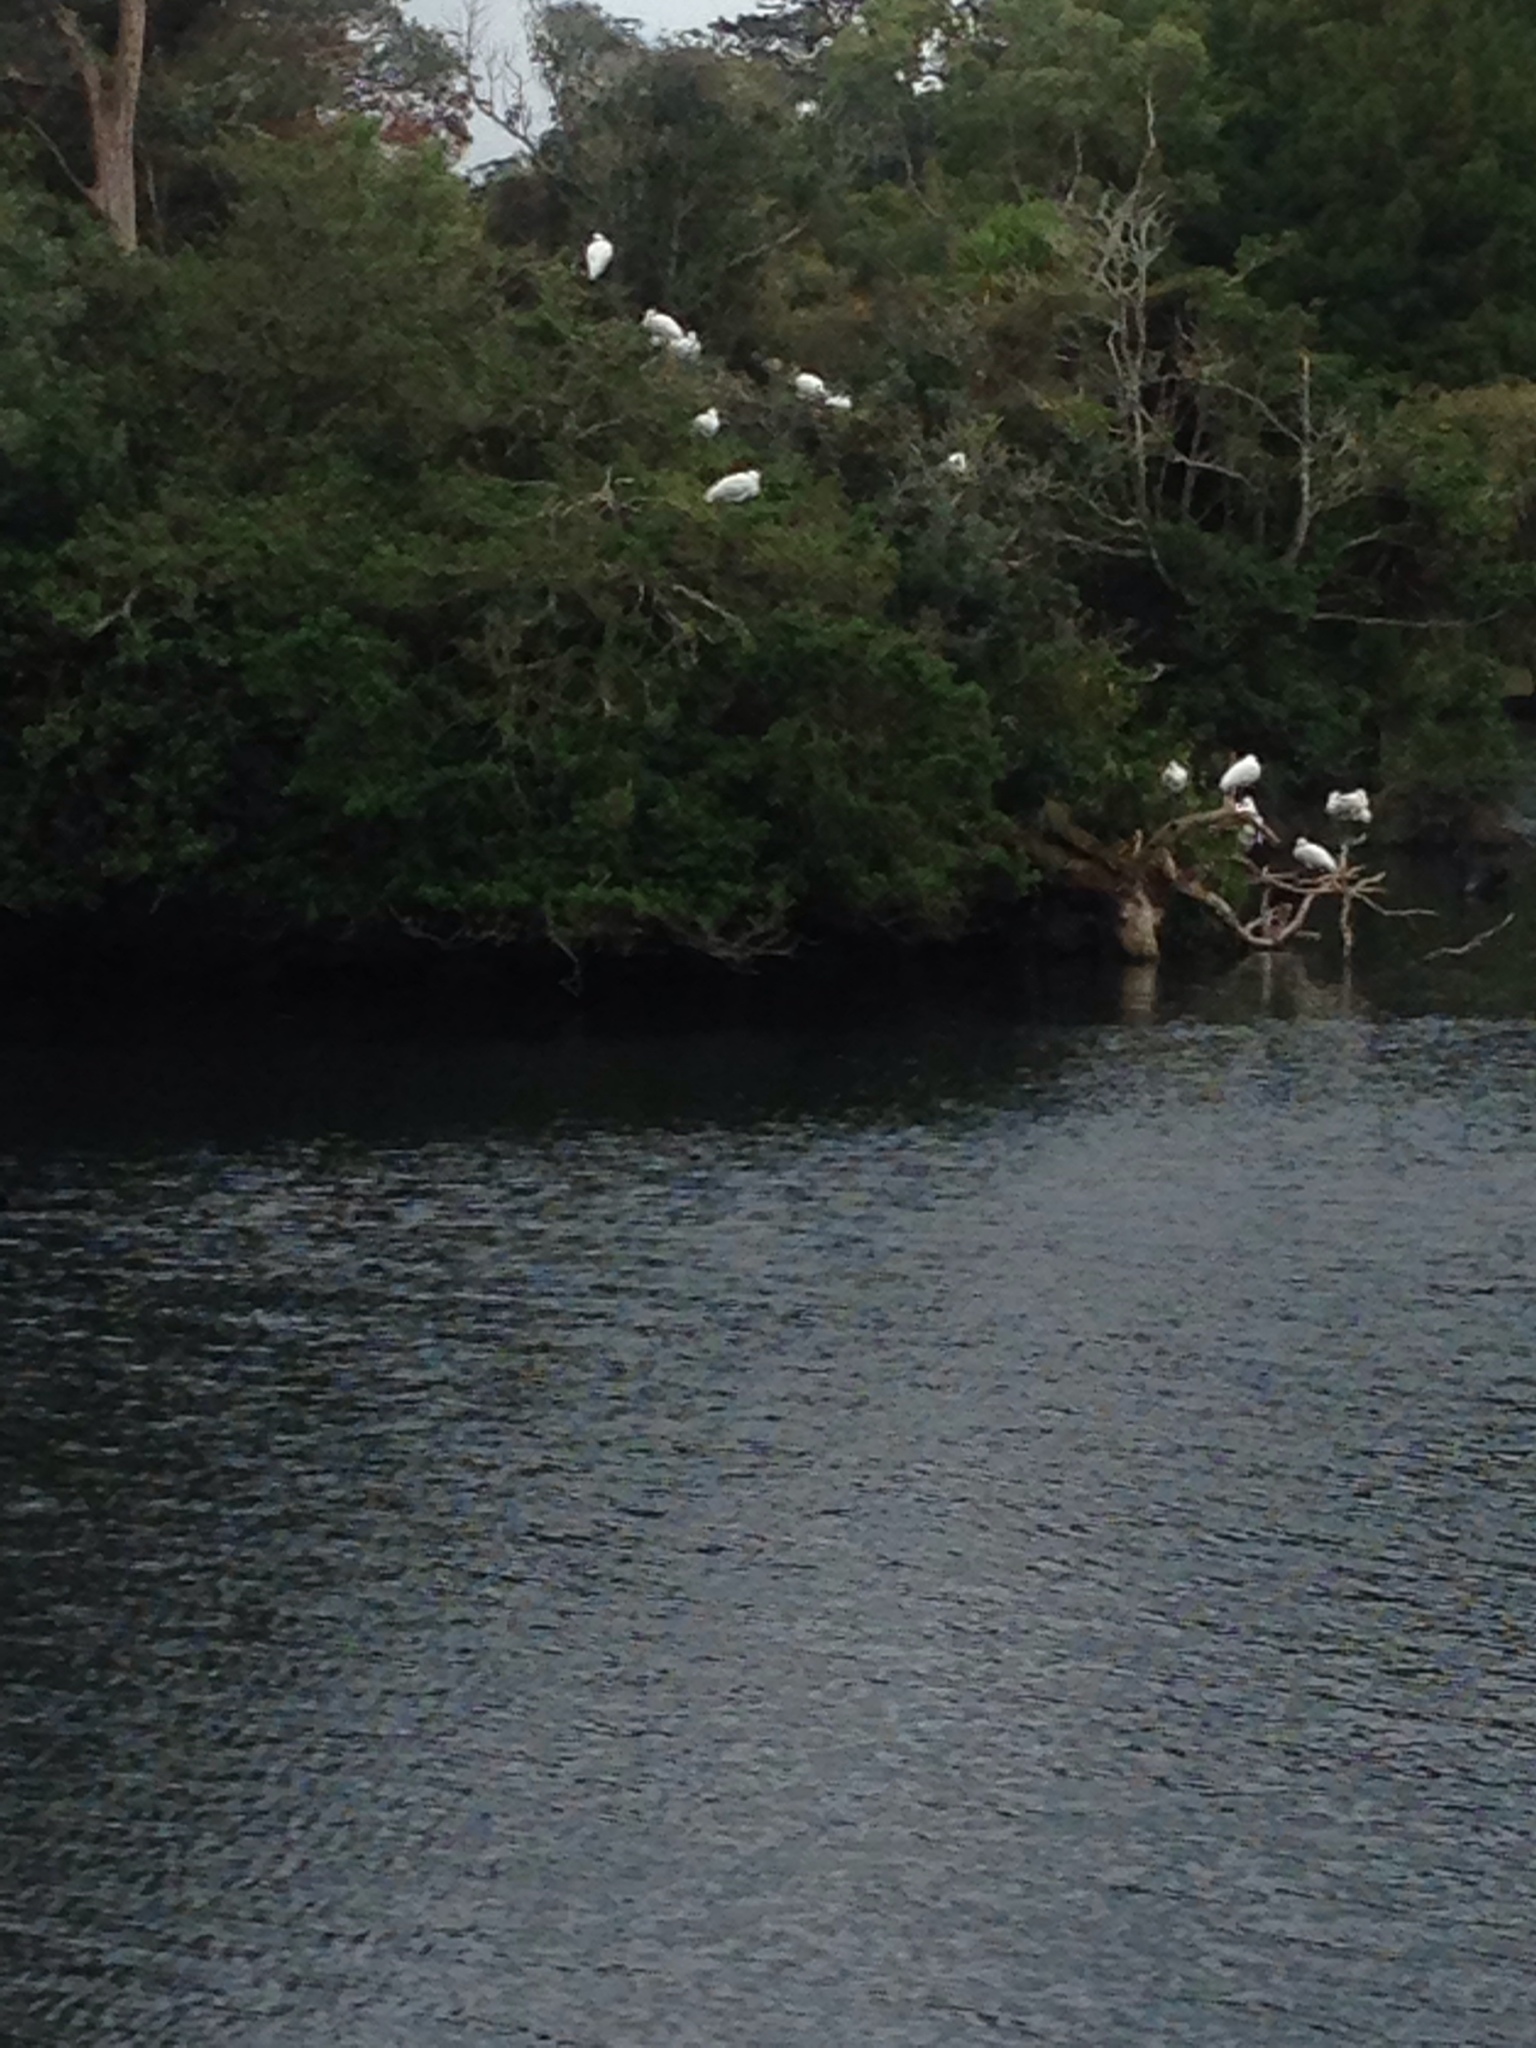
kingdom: Animalia
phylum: Chordata
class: Aves
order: Pelecaniformes
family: Threskiornithidae
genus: Platalea
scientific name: Platalea regia
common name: Royal spoonbill
